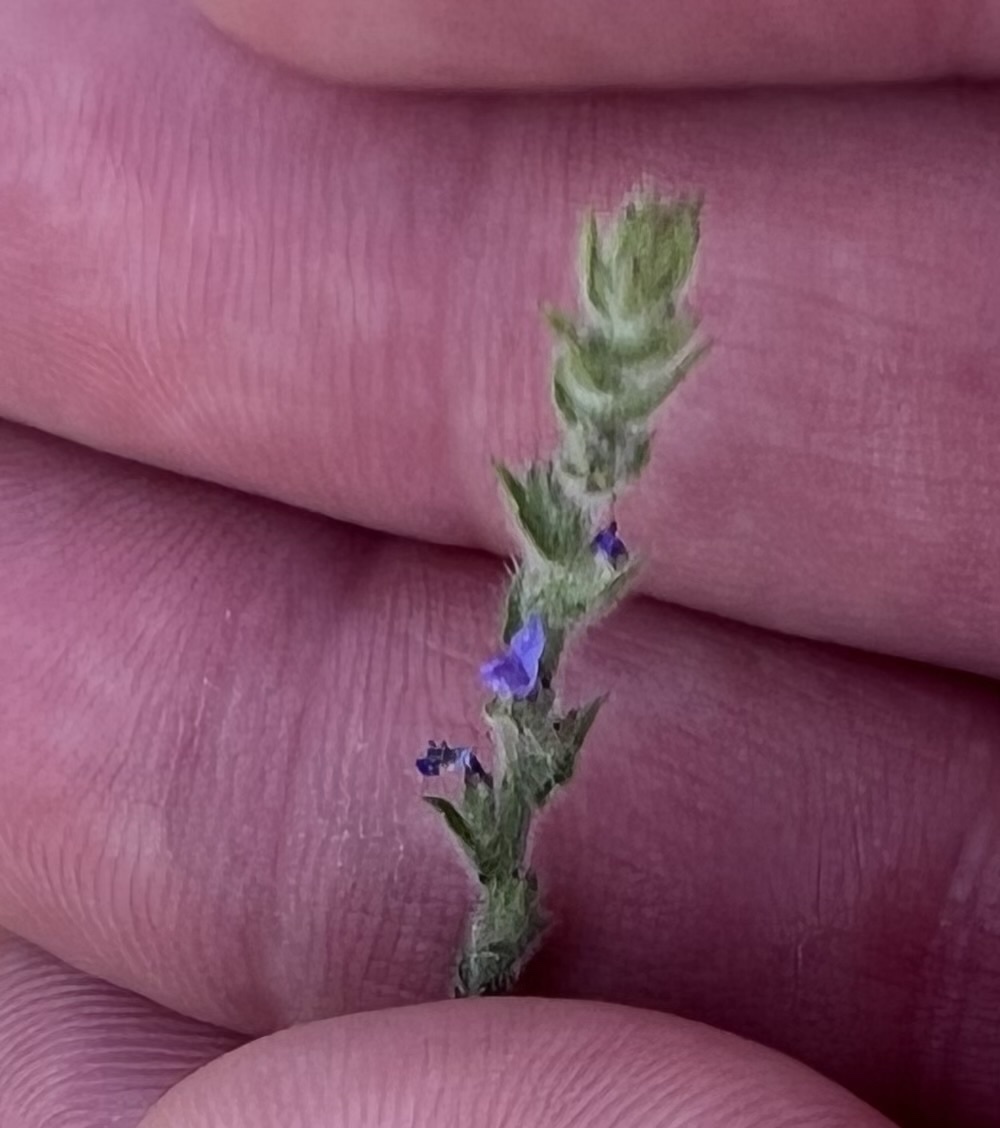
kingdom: Plantae
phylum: Tracheophyta
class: Magnoliopsida
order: Lamiales
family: Verbenaceae
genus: Verbena
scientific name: Verbena canescens
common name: Gray vervain
